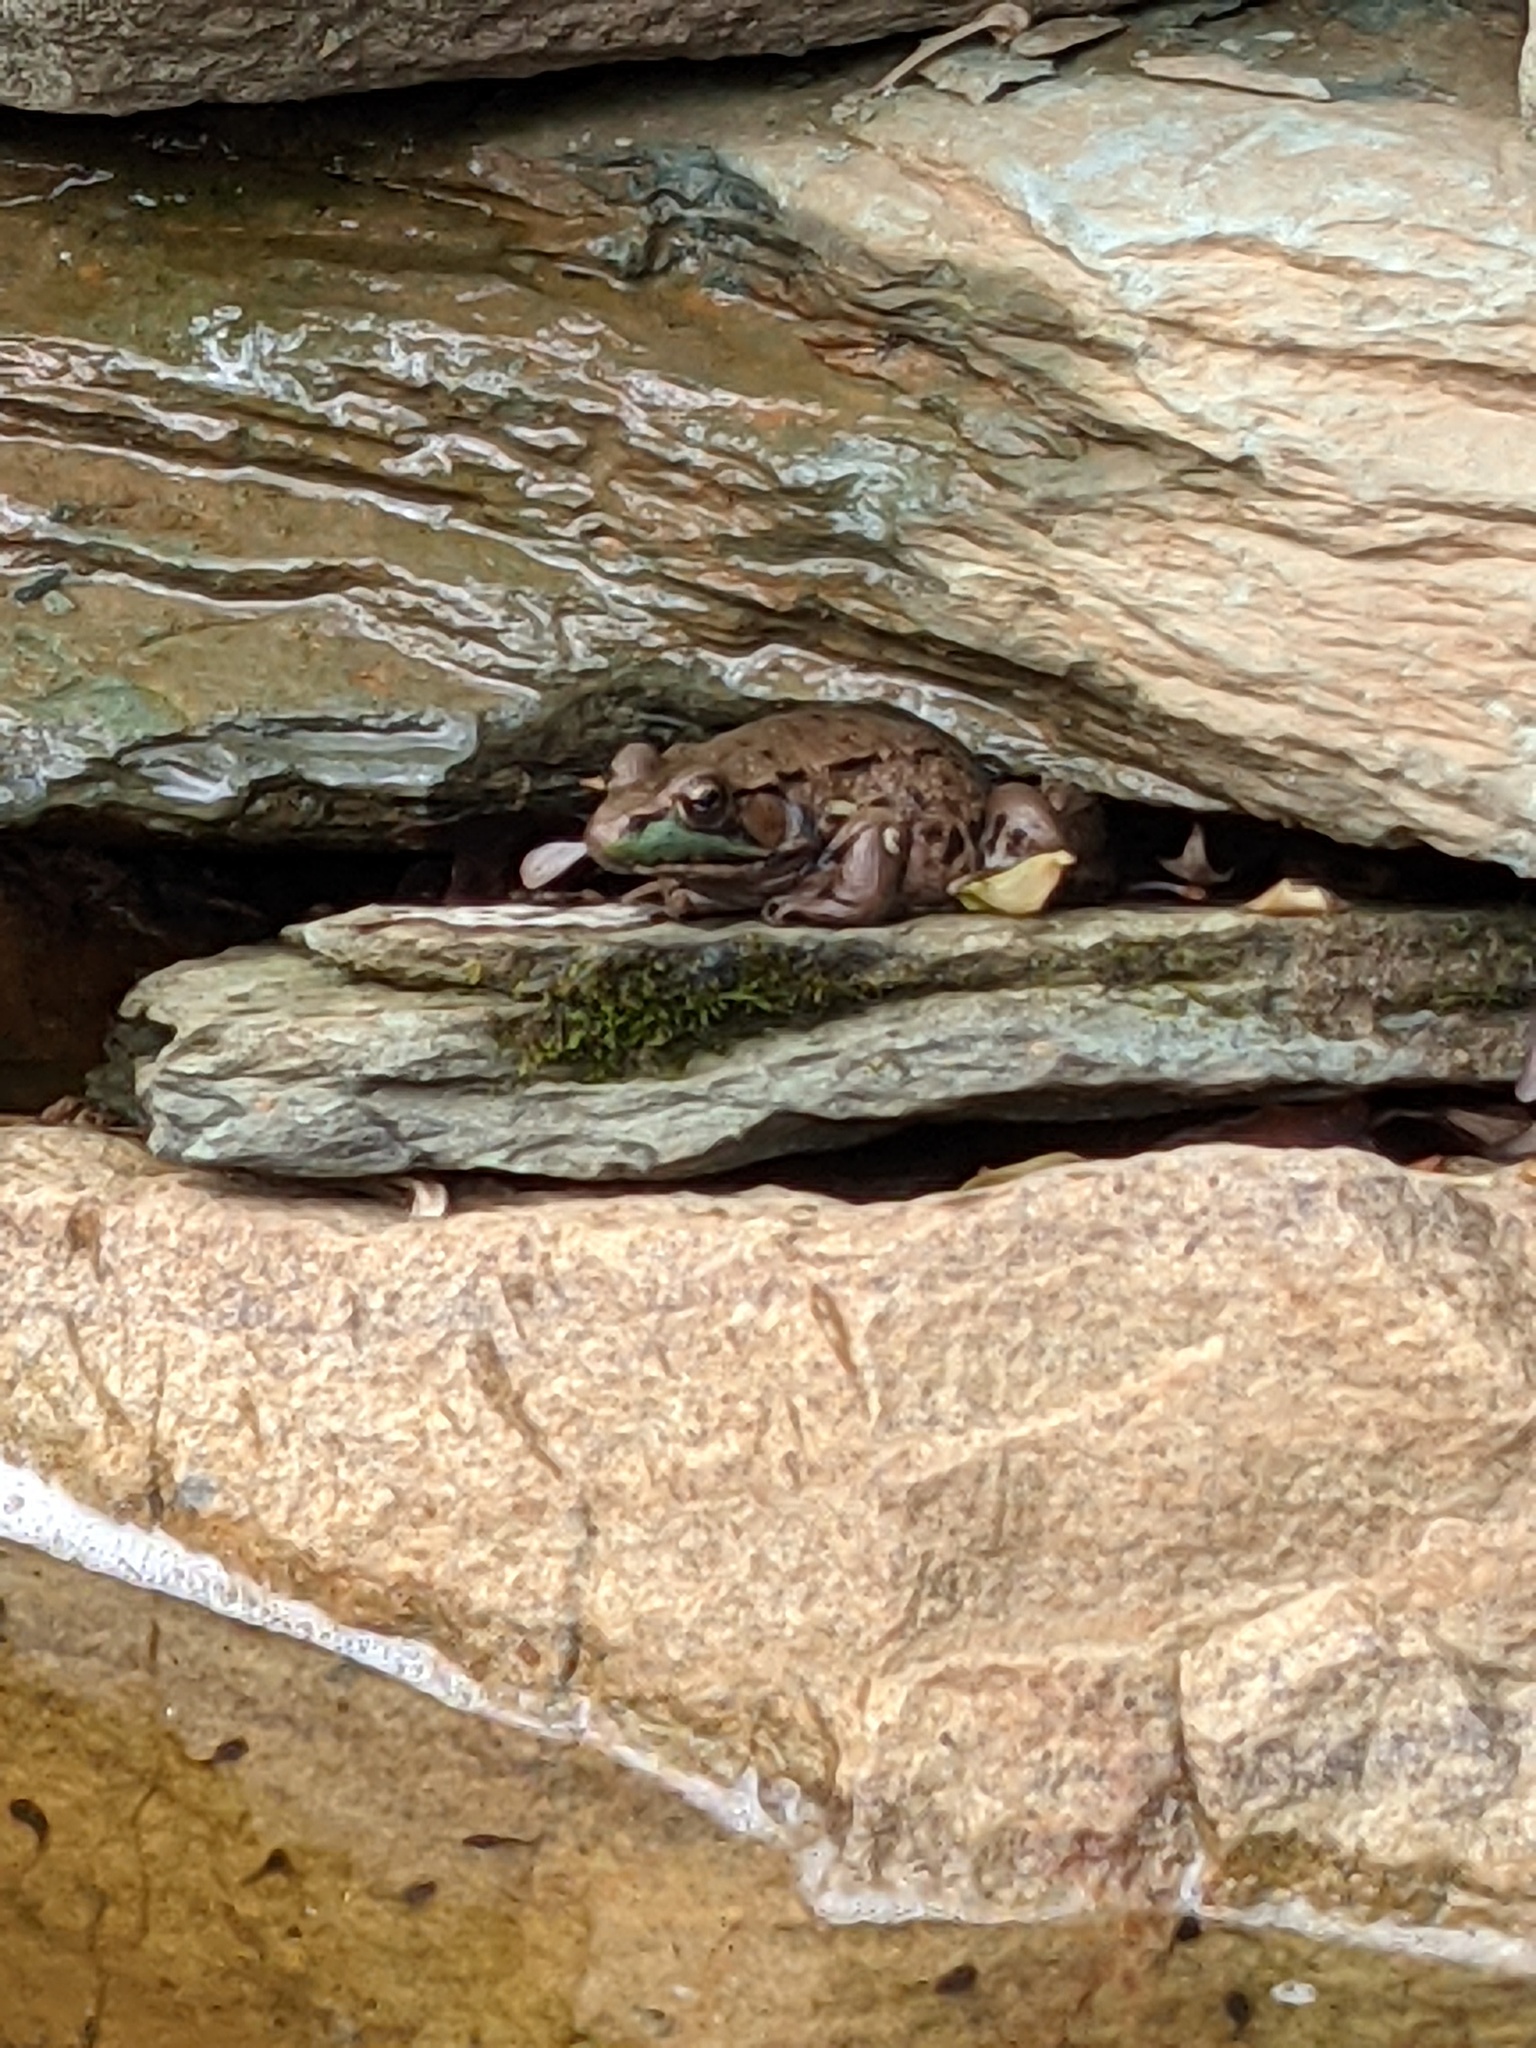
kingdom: Animalia
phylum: Chordata
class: Amphibia
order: Anura
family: Ranidae
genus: Lithobates
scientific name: Lithobates clamitans
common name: Green frog
